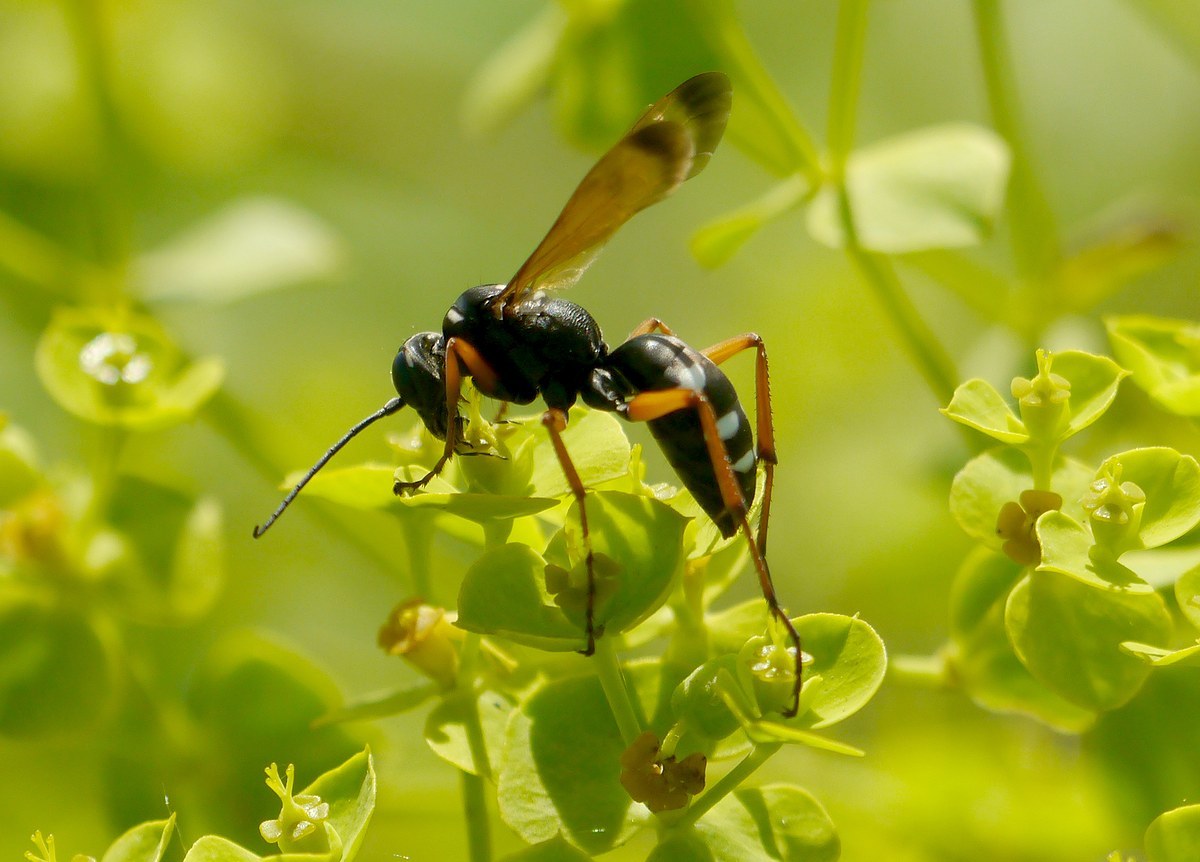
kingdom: Animalia
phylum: Arthropoda
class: Insecta
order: Hymenoptera
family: Pompilidae
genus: Cryptocheilus
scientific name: Cryptocheilus variabilis
